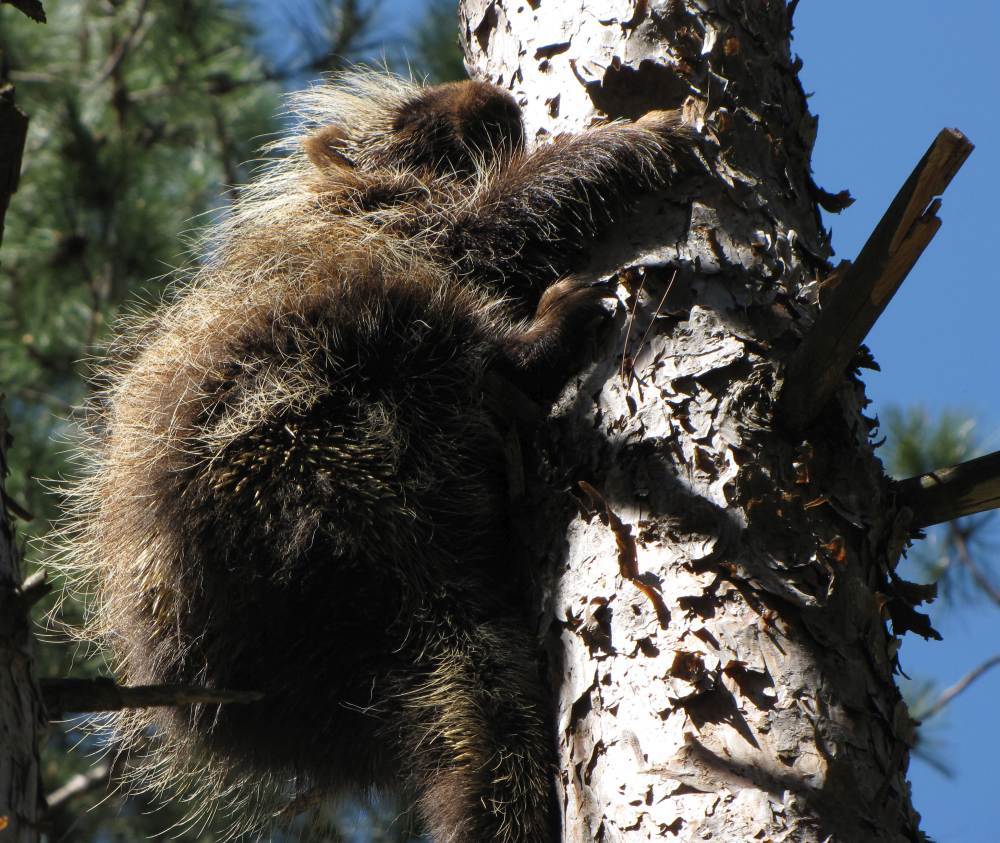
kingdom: Animalia
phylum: Chordata
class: Mammalia
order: Rodentia
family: Erethizontidae
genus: Erethizon
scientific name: Erethizon dorsatus
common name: North american porcupine
